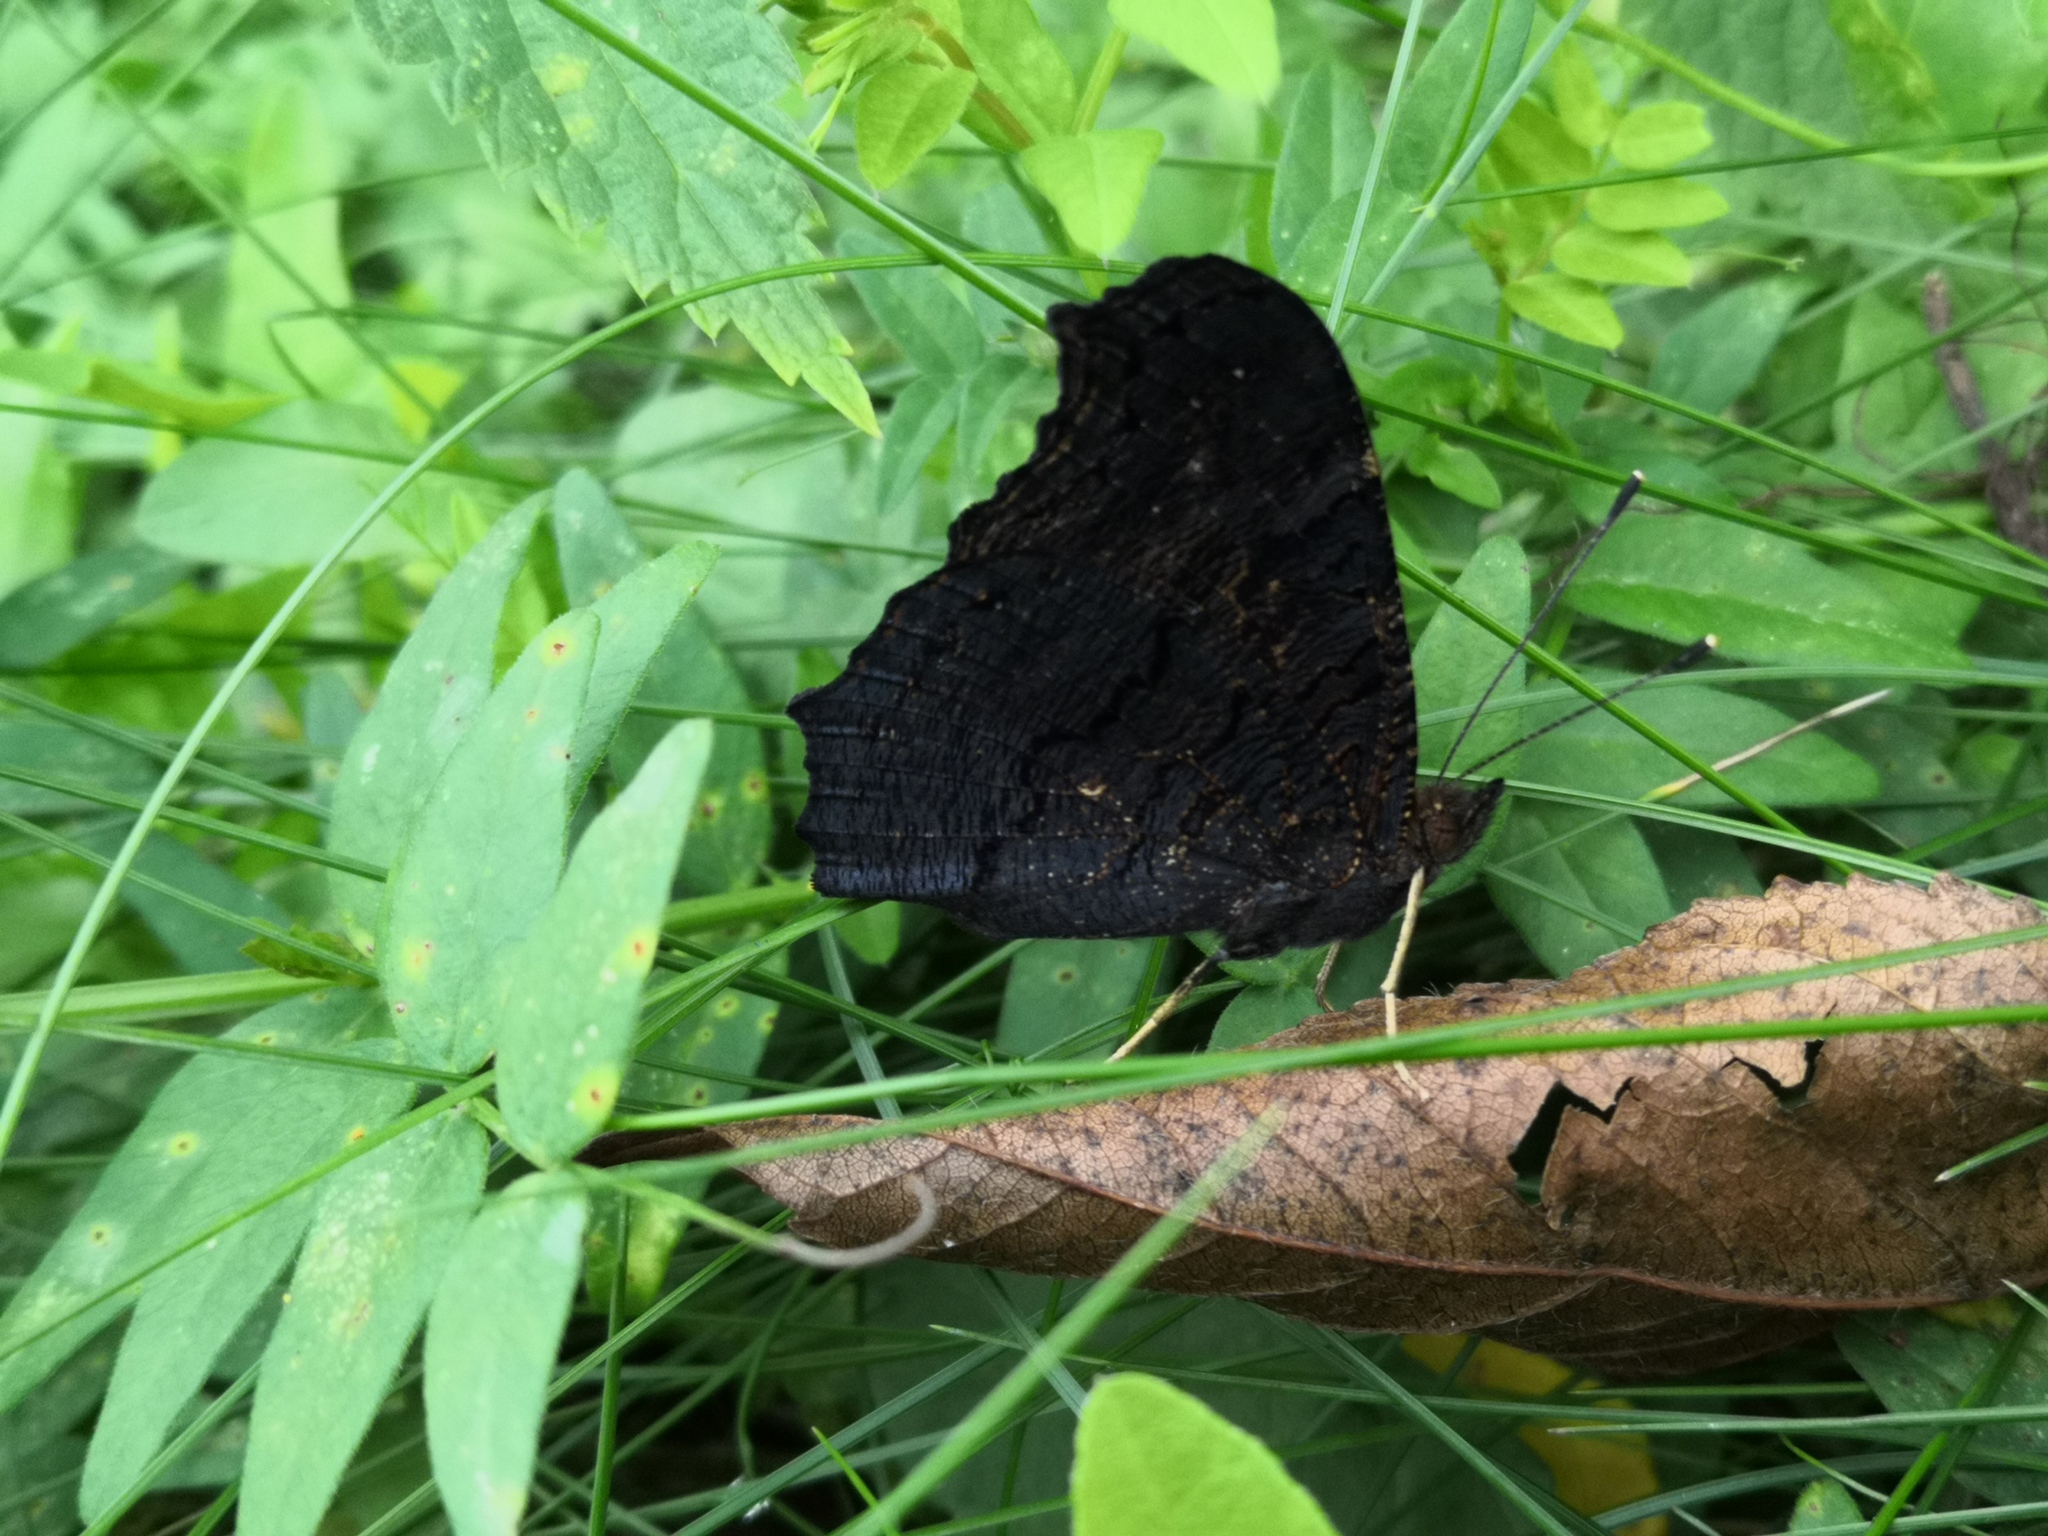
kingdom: Animalia
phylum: Arthropoda
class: Insecta
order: Lepidoptera
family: Nymphalidae
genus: Aglais
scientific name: Aglais io
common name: Peacock
